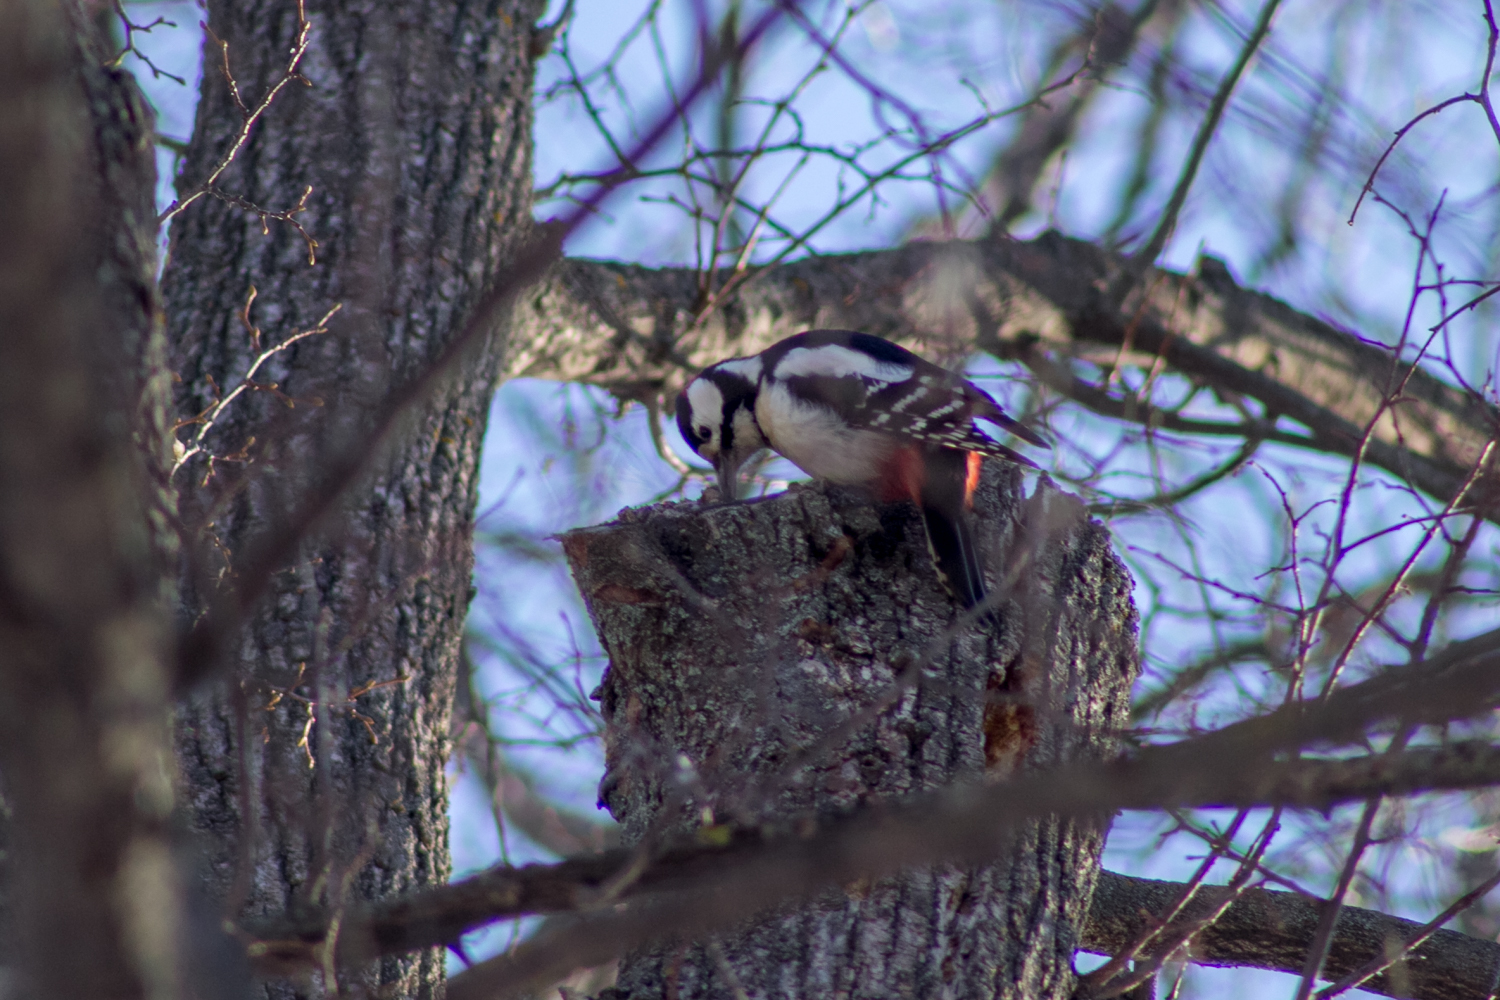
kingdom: Animalia
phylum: Chordata
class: Aves
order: Piciformes
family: Picidae
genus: Dendrocopos
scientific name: Dendrocopos major
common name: Great spotted woodpecker
